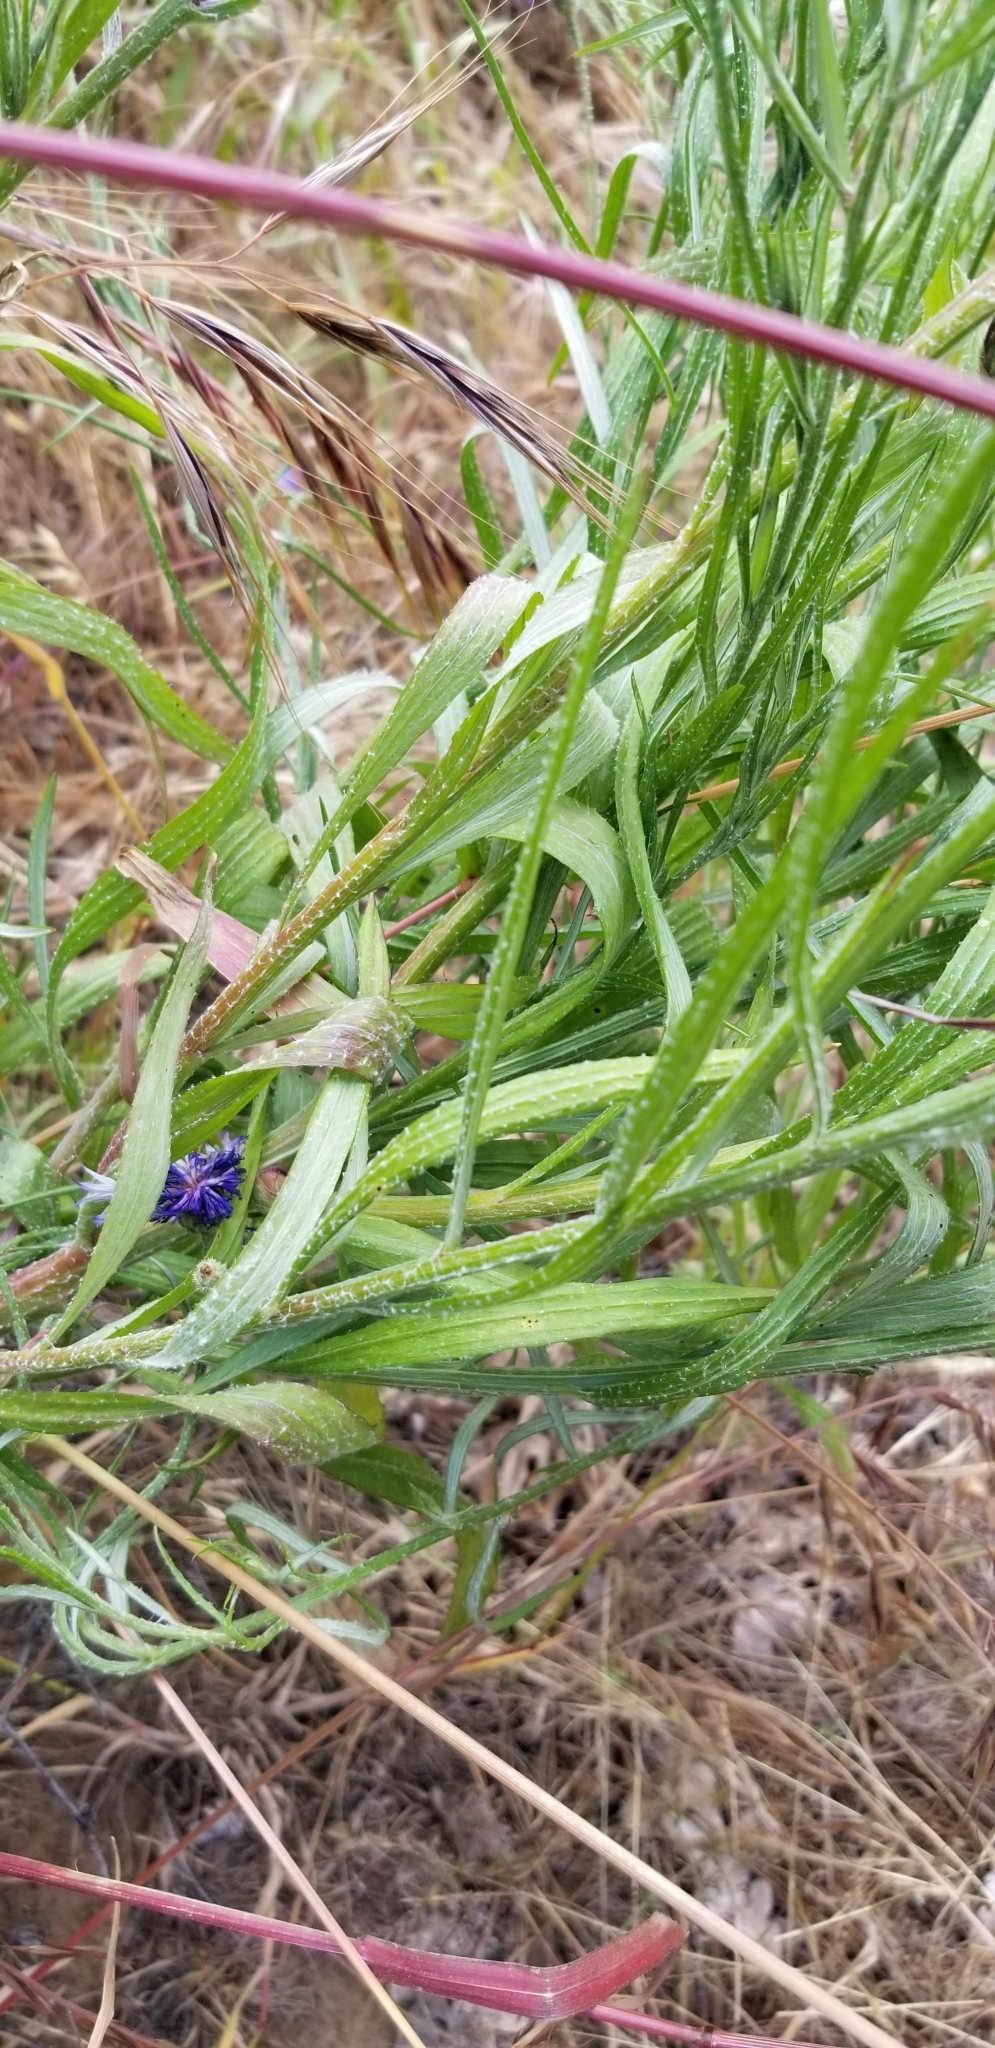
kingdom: Plantae
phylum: Tracheophyta
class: Magnoliopsida
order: Asterales
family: Asteraceae
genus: Centaurea
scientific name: Centaurea cyanus
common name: Cornflower
